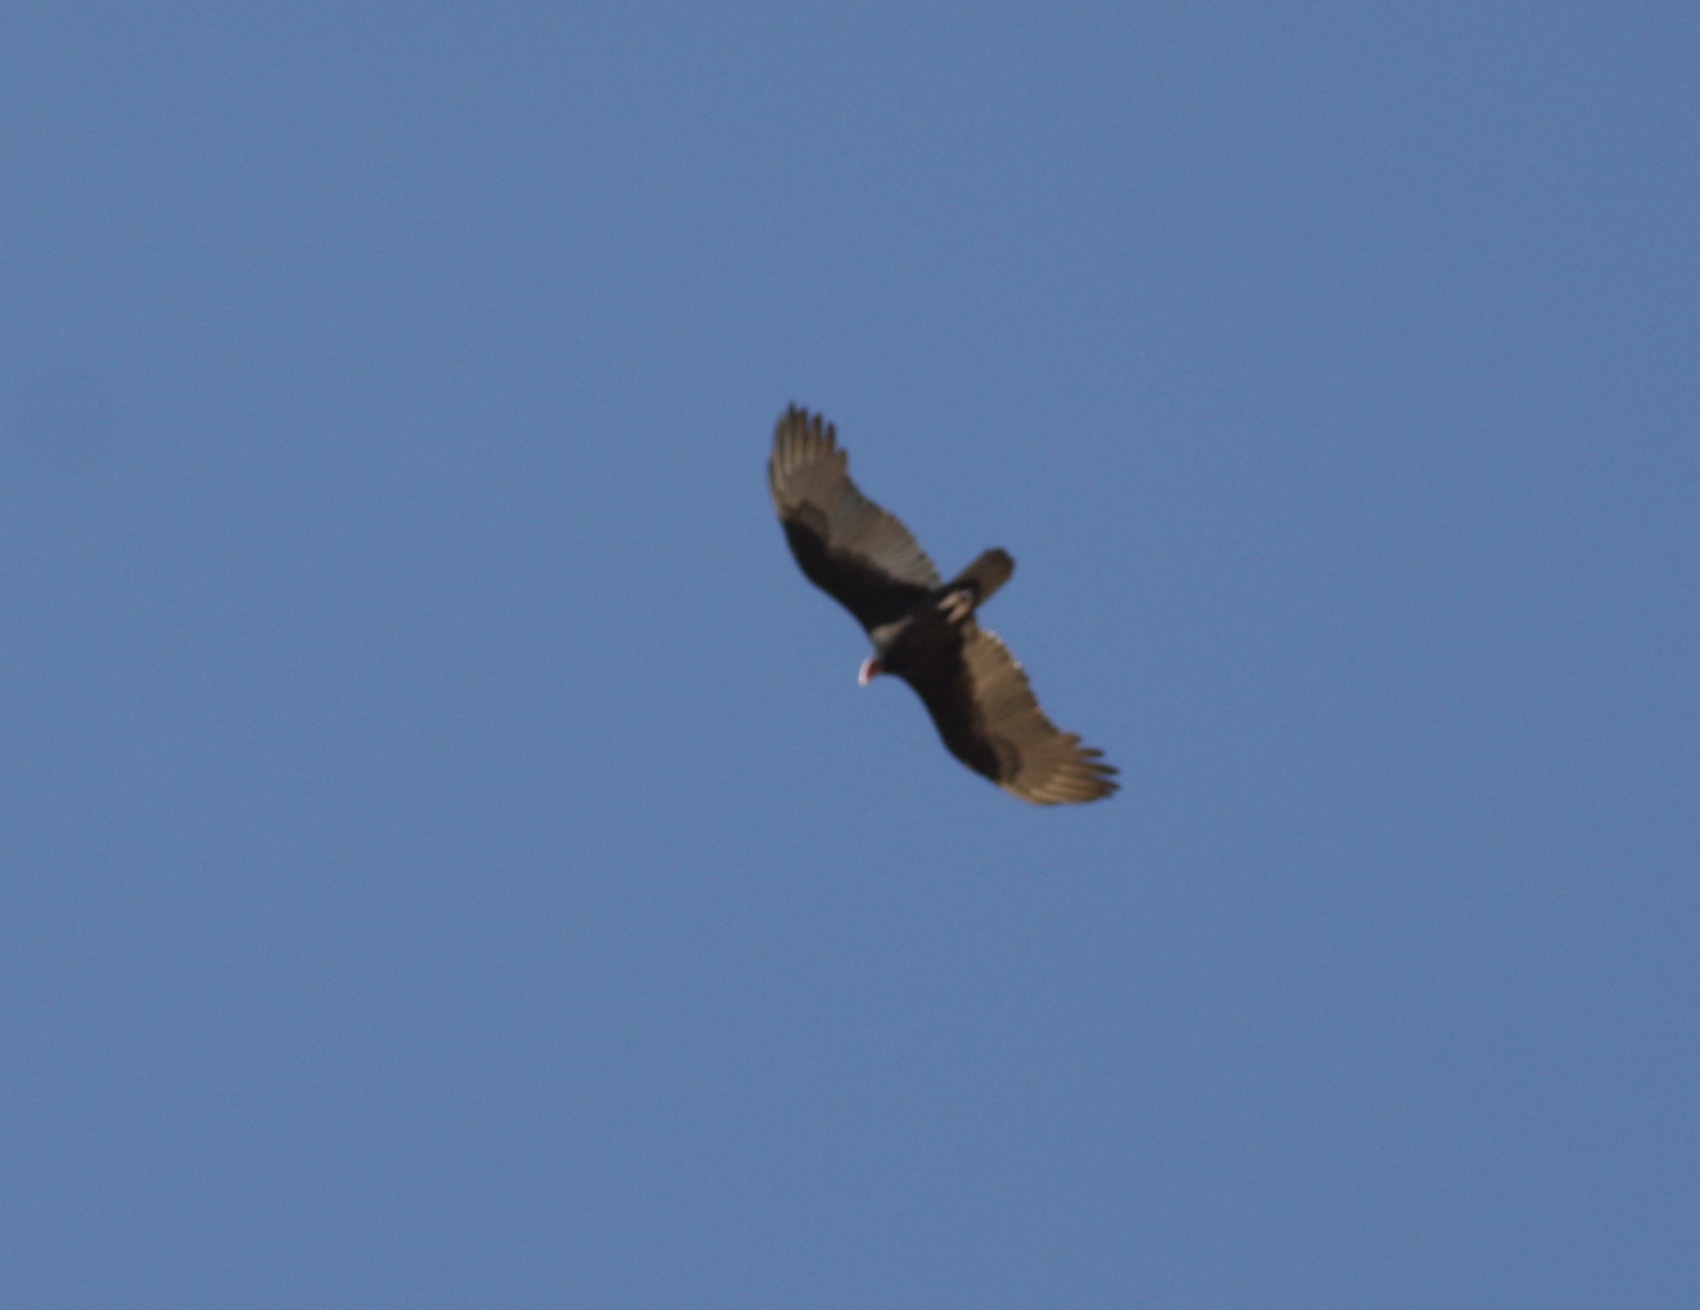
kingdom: Animalia
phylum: Chordata
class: Aves
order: Accipitriformes
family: Cathartidae
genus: Cathartes
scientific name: Cathartes aura
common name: Turkey vulture
